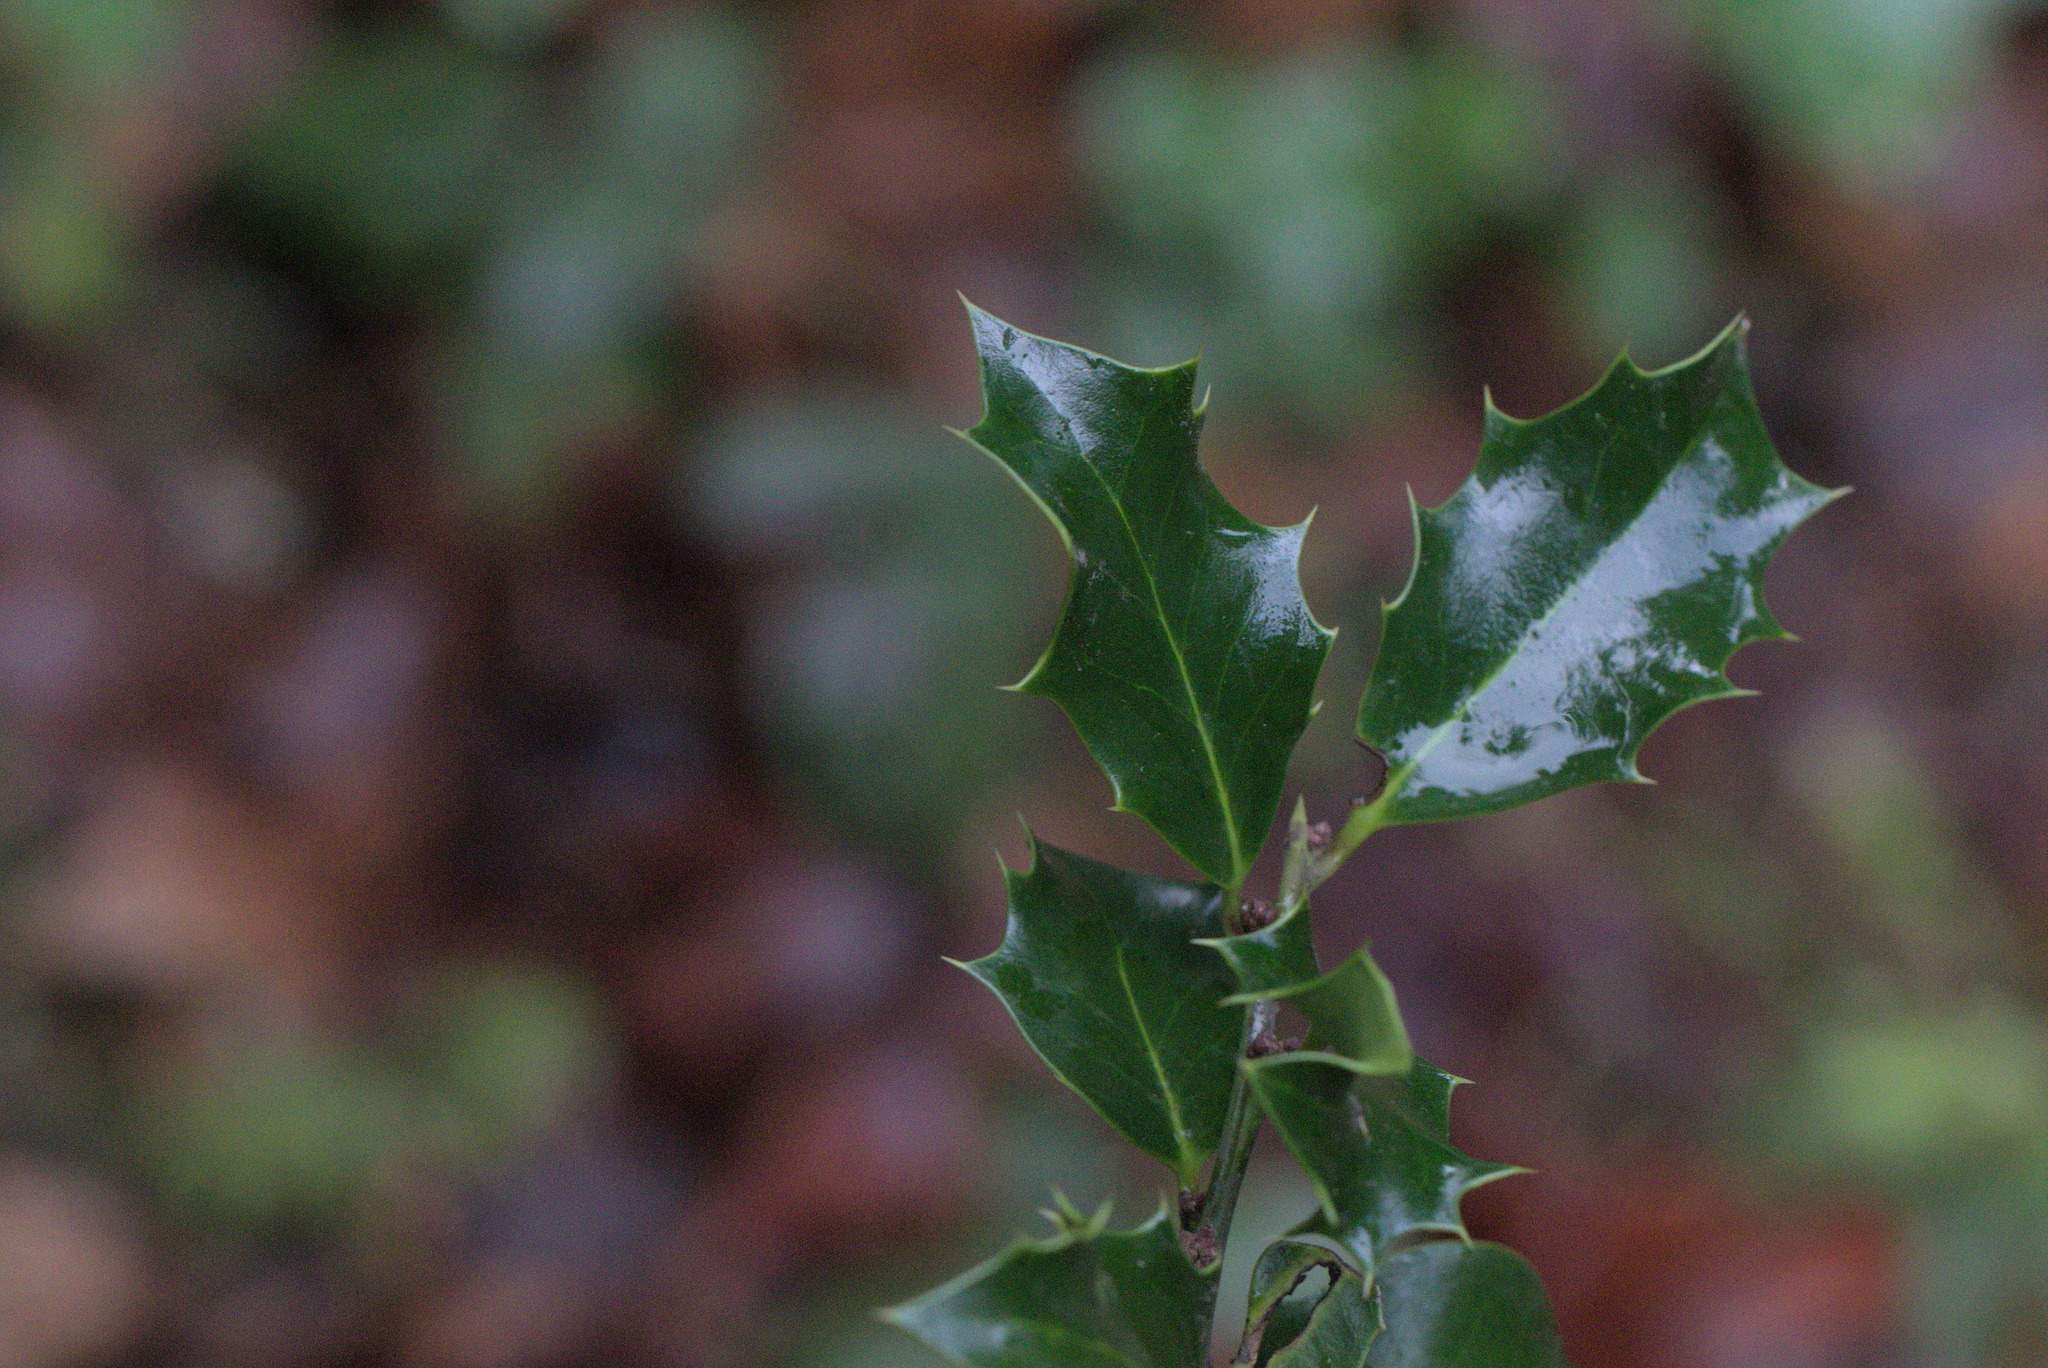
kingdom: Plantae
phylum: Tracheophyta
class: Magnoliopsida
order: Aquifoliales
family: Aquifoliaceae
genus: Ilex
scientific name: Ilex aquifolium
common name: English holly
